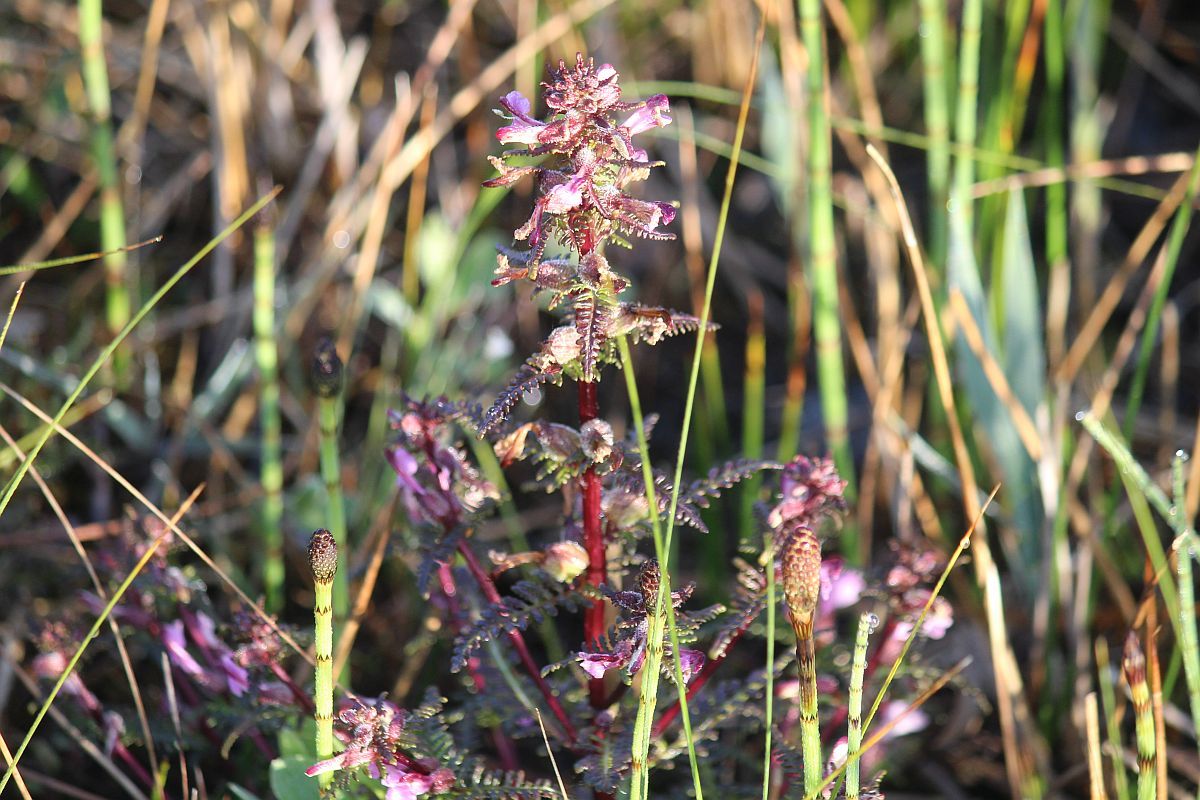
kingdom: Plantae
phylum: Tracheophyta
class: Magnoliopsida
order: Lamiales
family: Orobanchaceae
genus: Pedicularis
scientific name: Pedicularis palustris
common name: Marsh lousewort
